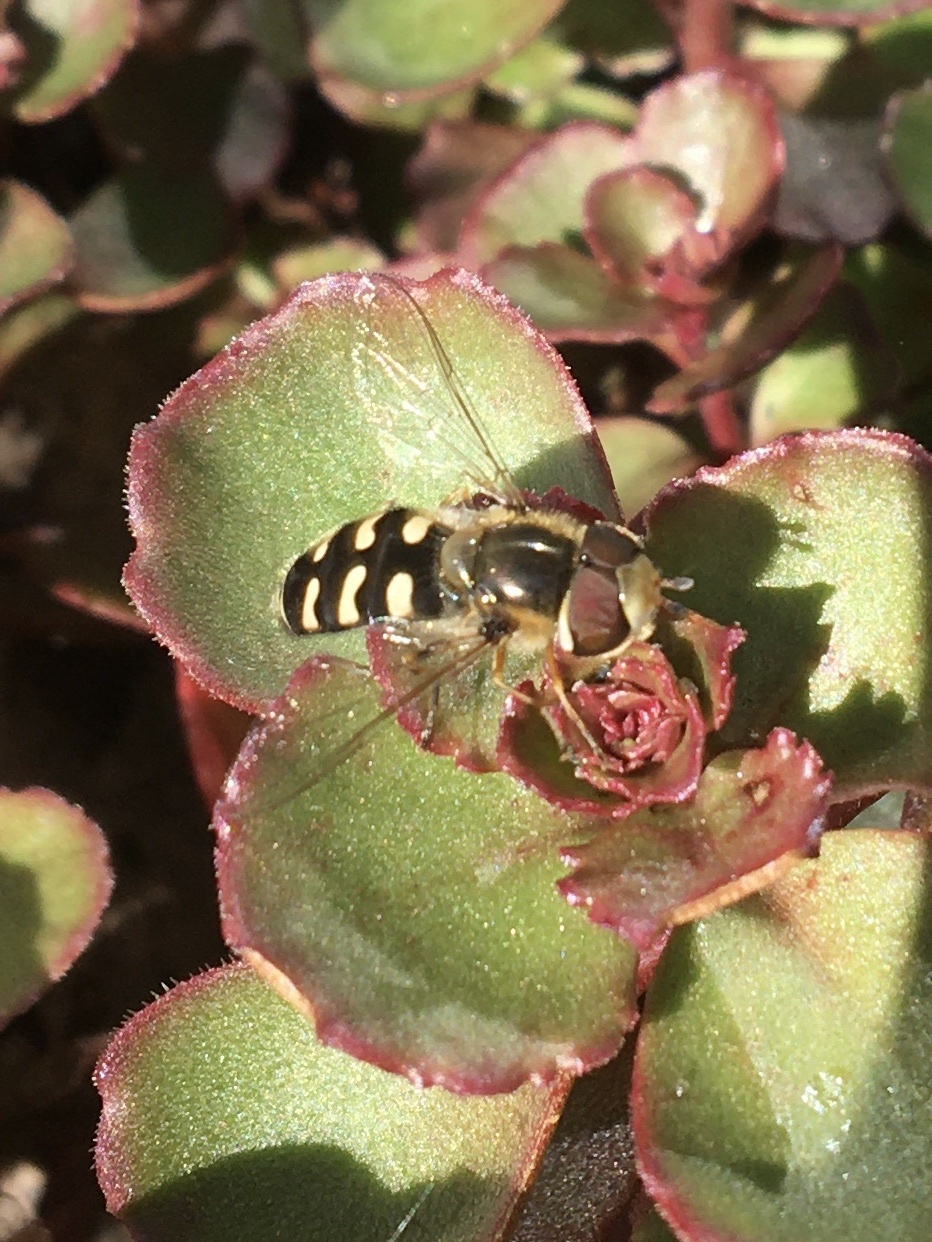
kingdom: Animalia
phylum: Arthropoda
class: Insecta
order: Diptera
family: Syrphidae
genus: Scaeva
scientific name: Scaeva pyrastri
